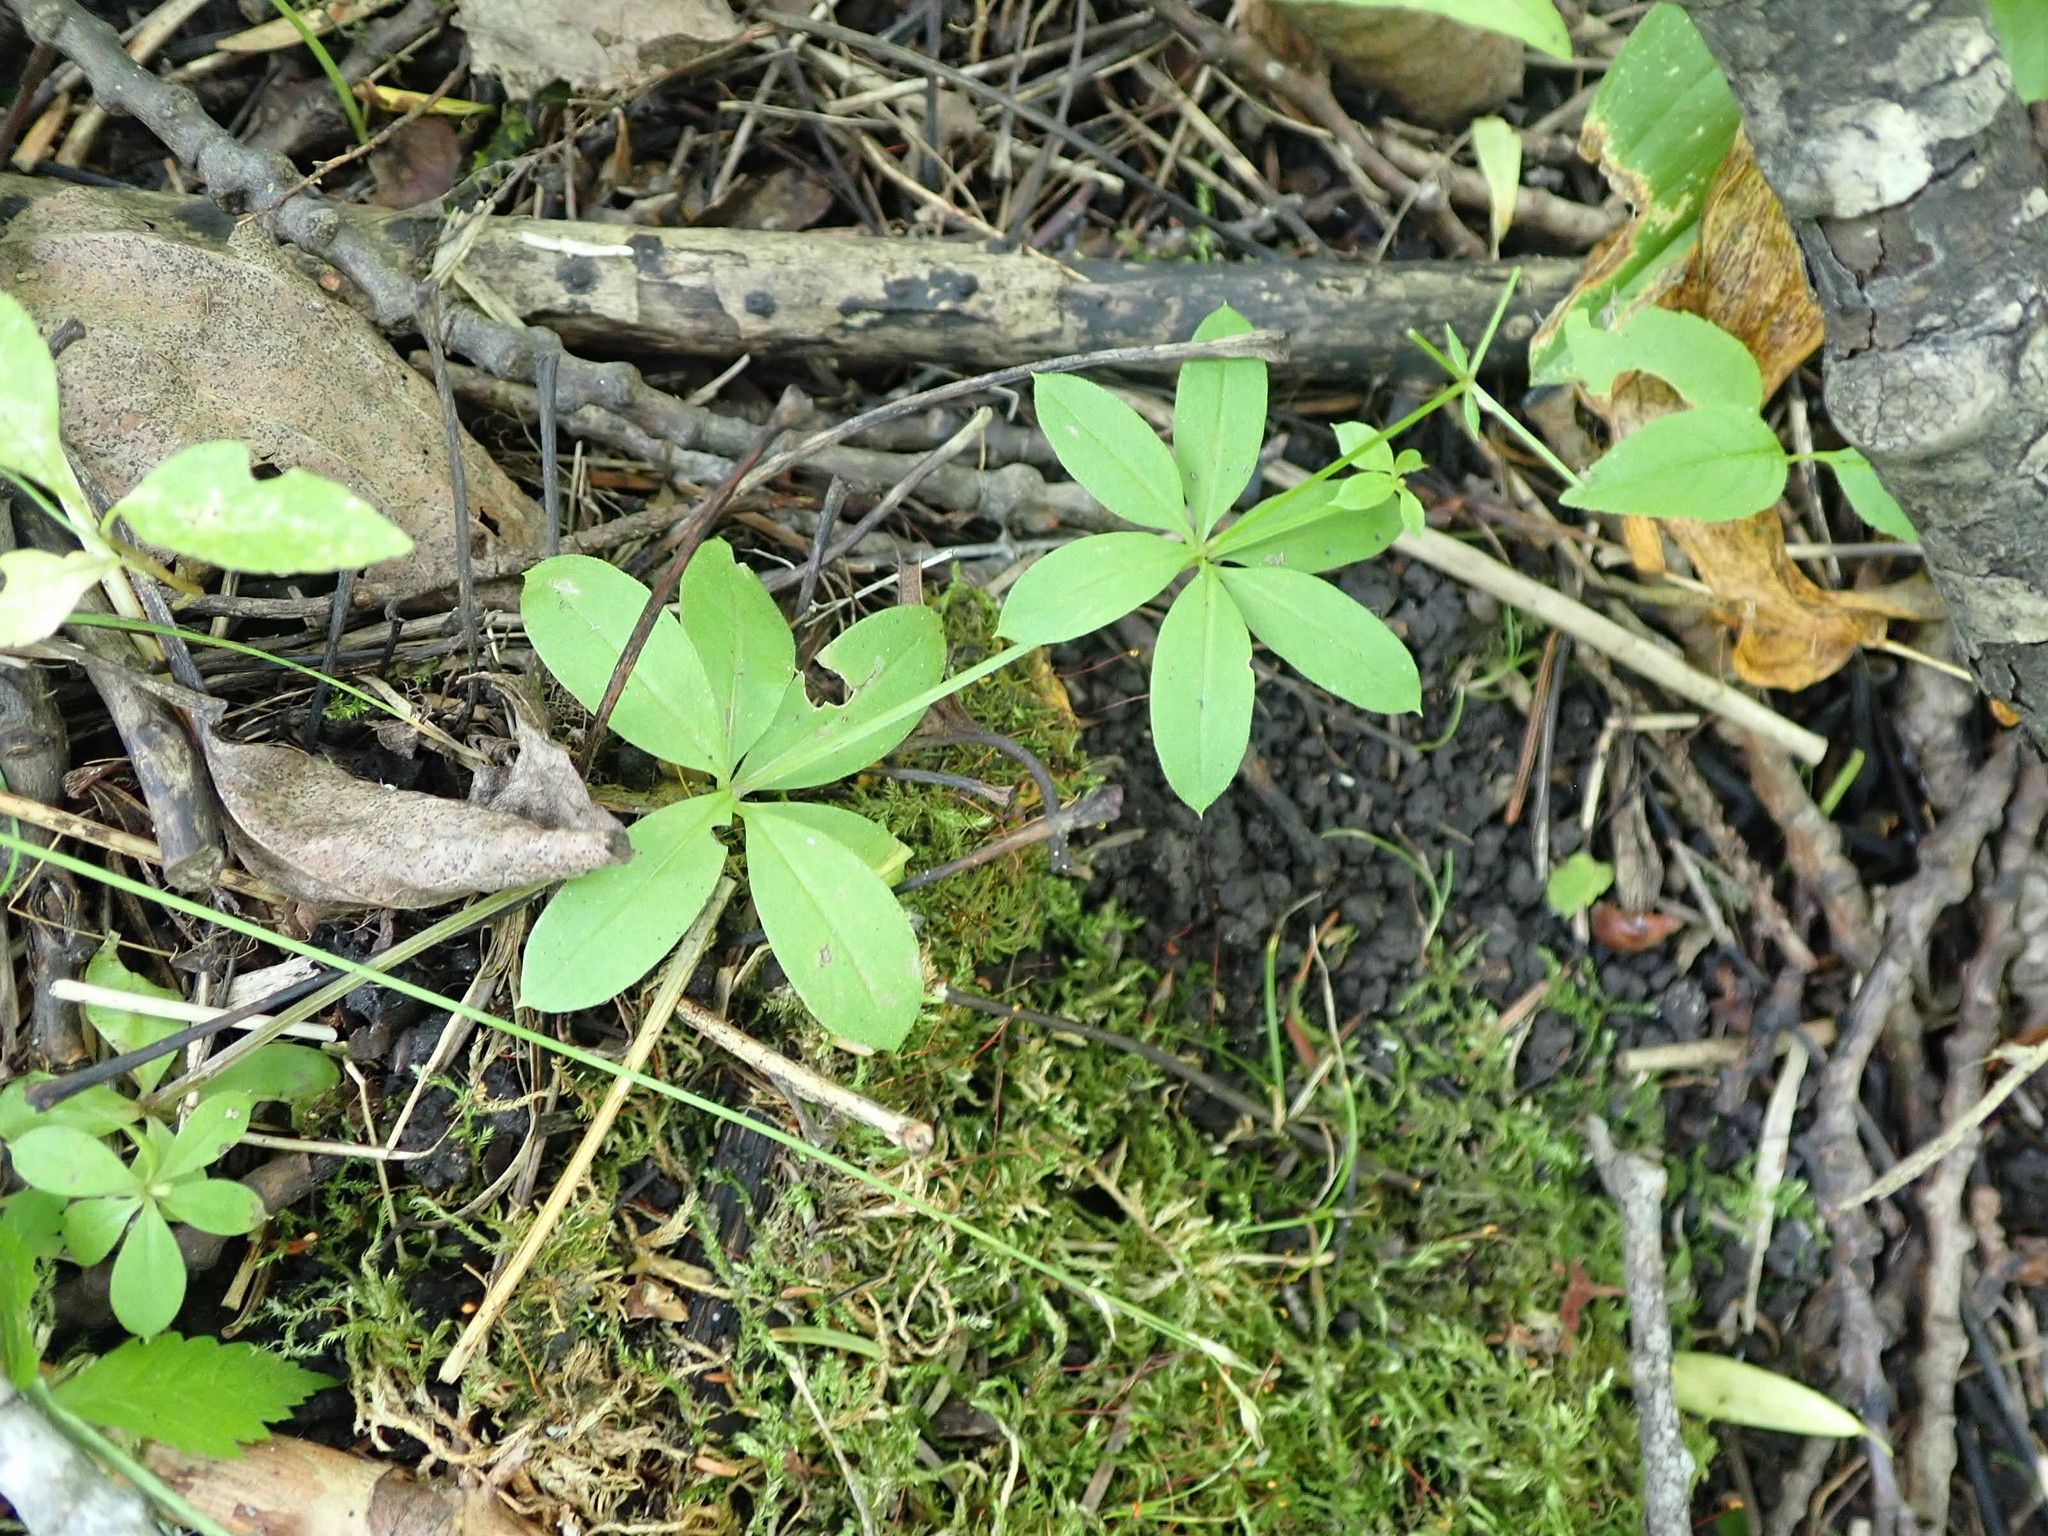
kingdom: Plantae
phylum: Tracheophyta
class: Magnoliopsida
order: Gentianales
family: Rubiaceae
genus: Galium
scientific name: Galium triflorum
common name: Fragrant bedstraw
